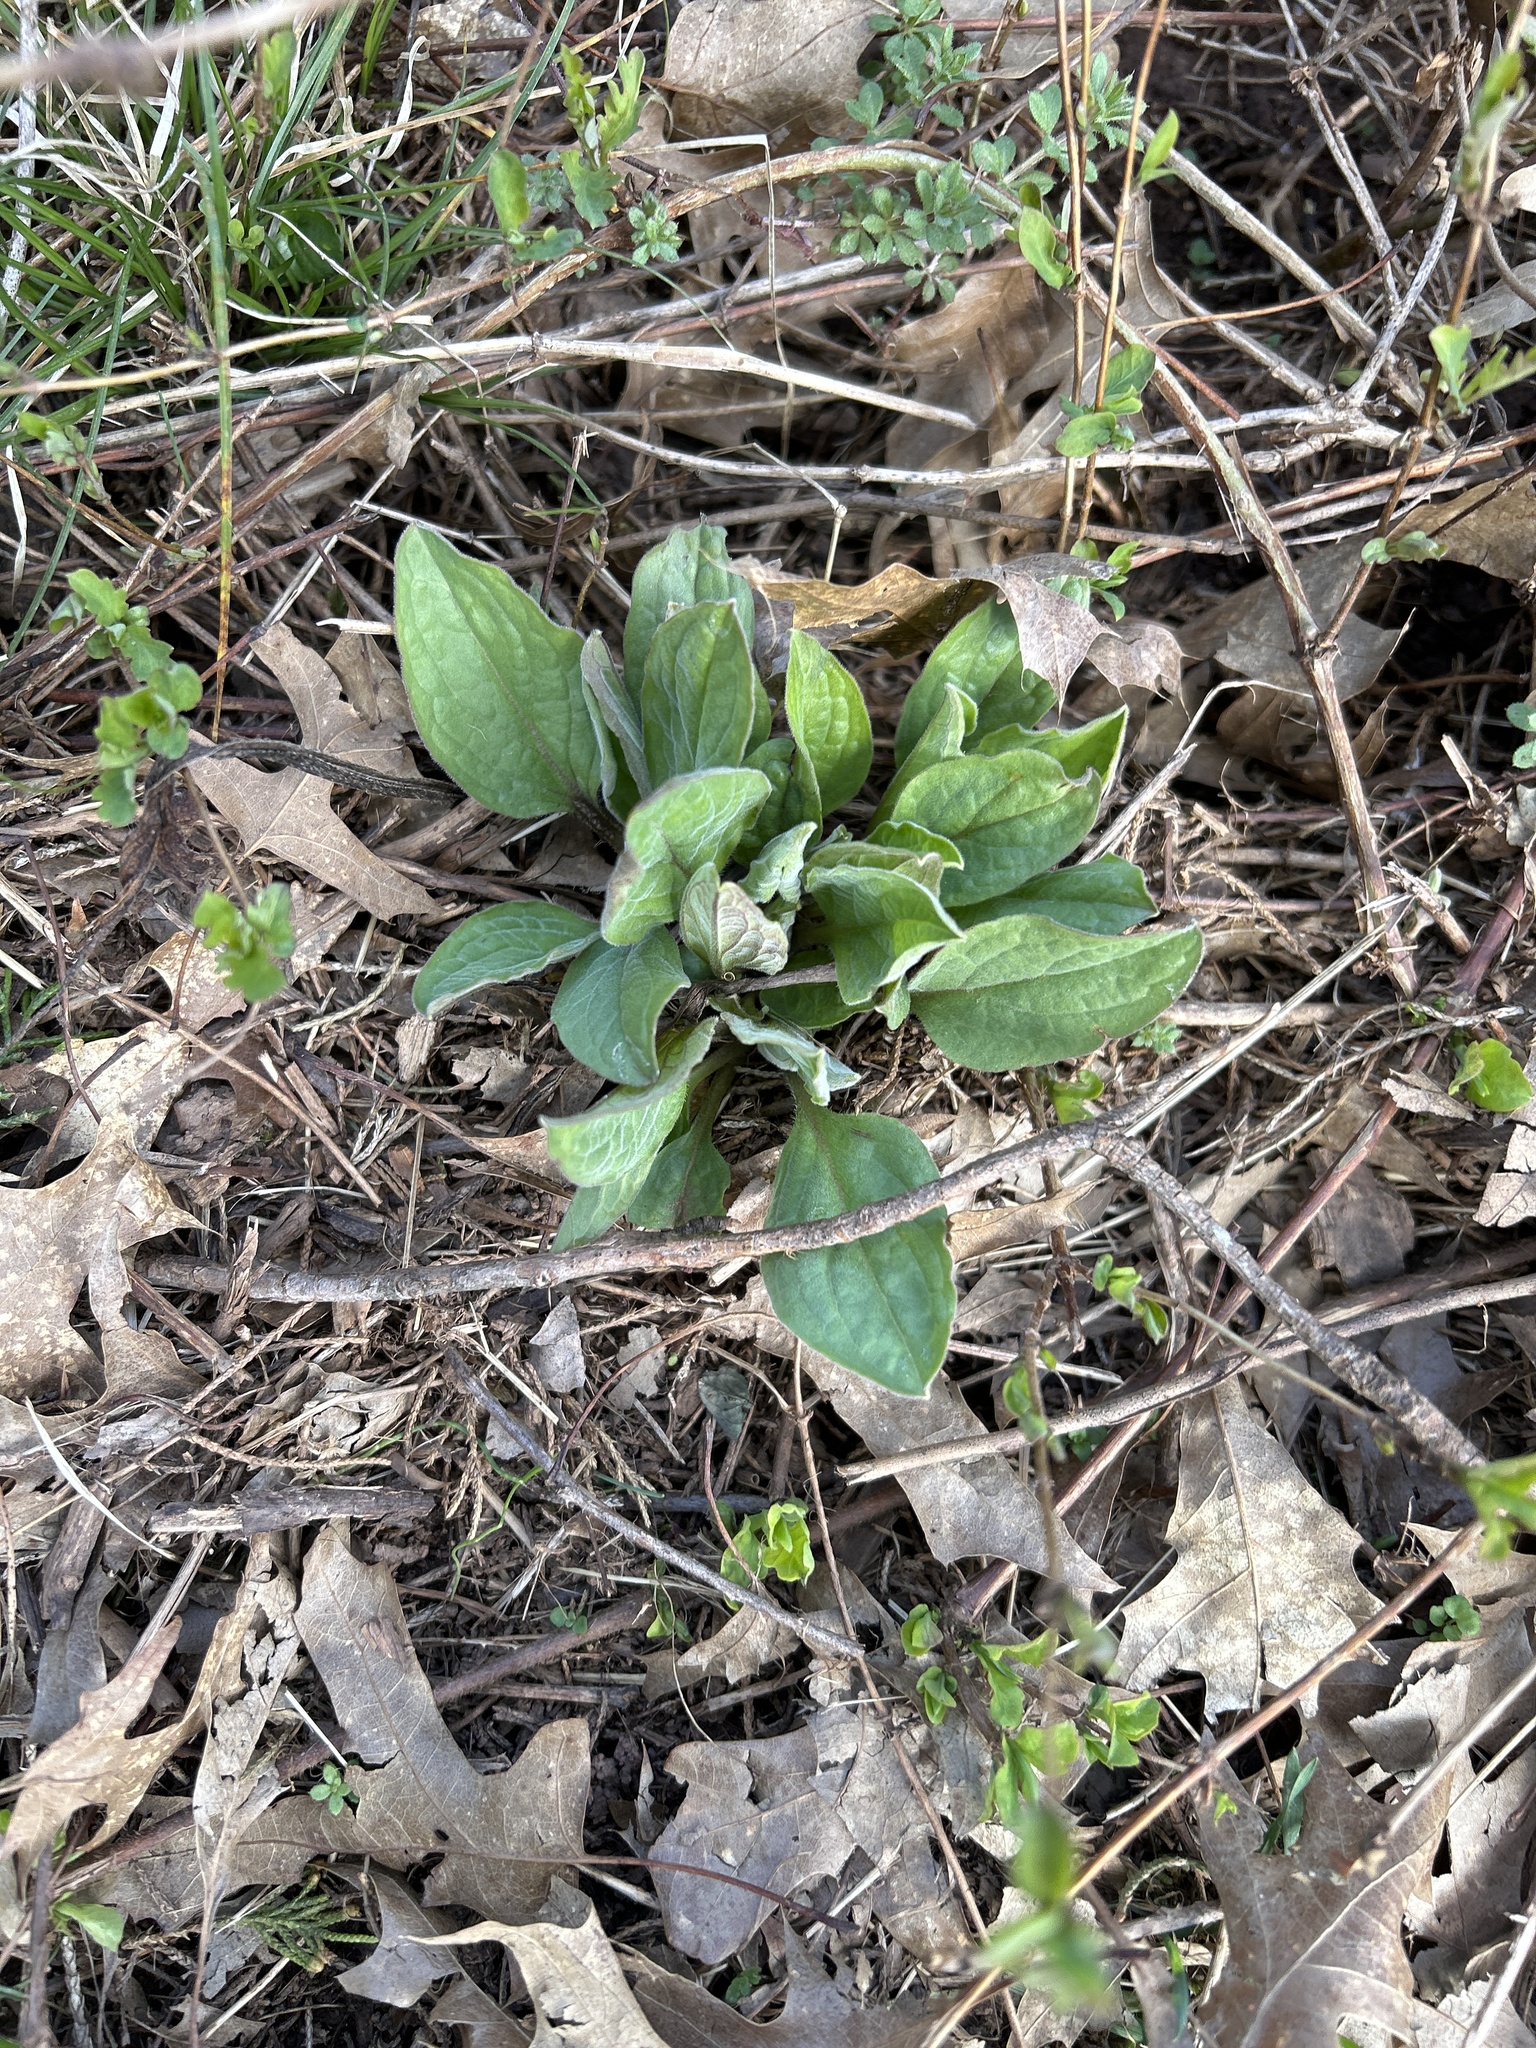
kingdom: Plantae
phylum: Tracheophyta
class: Magnoliopsida
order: Boraginales
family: Boraginaceae
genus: Hackelia
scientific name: Hackelia virginiana
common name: Beggar's-lice
